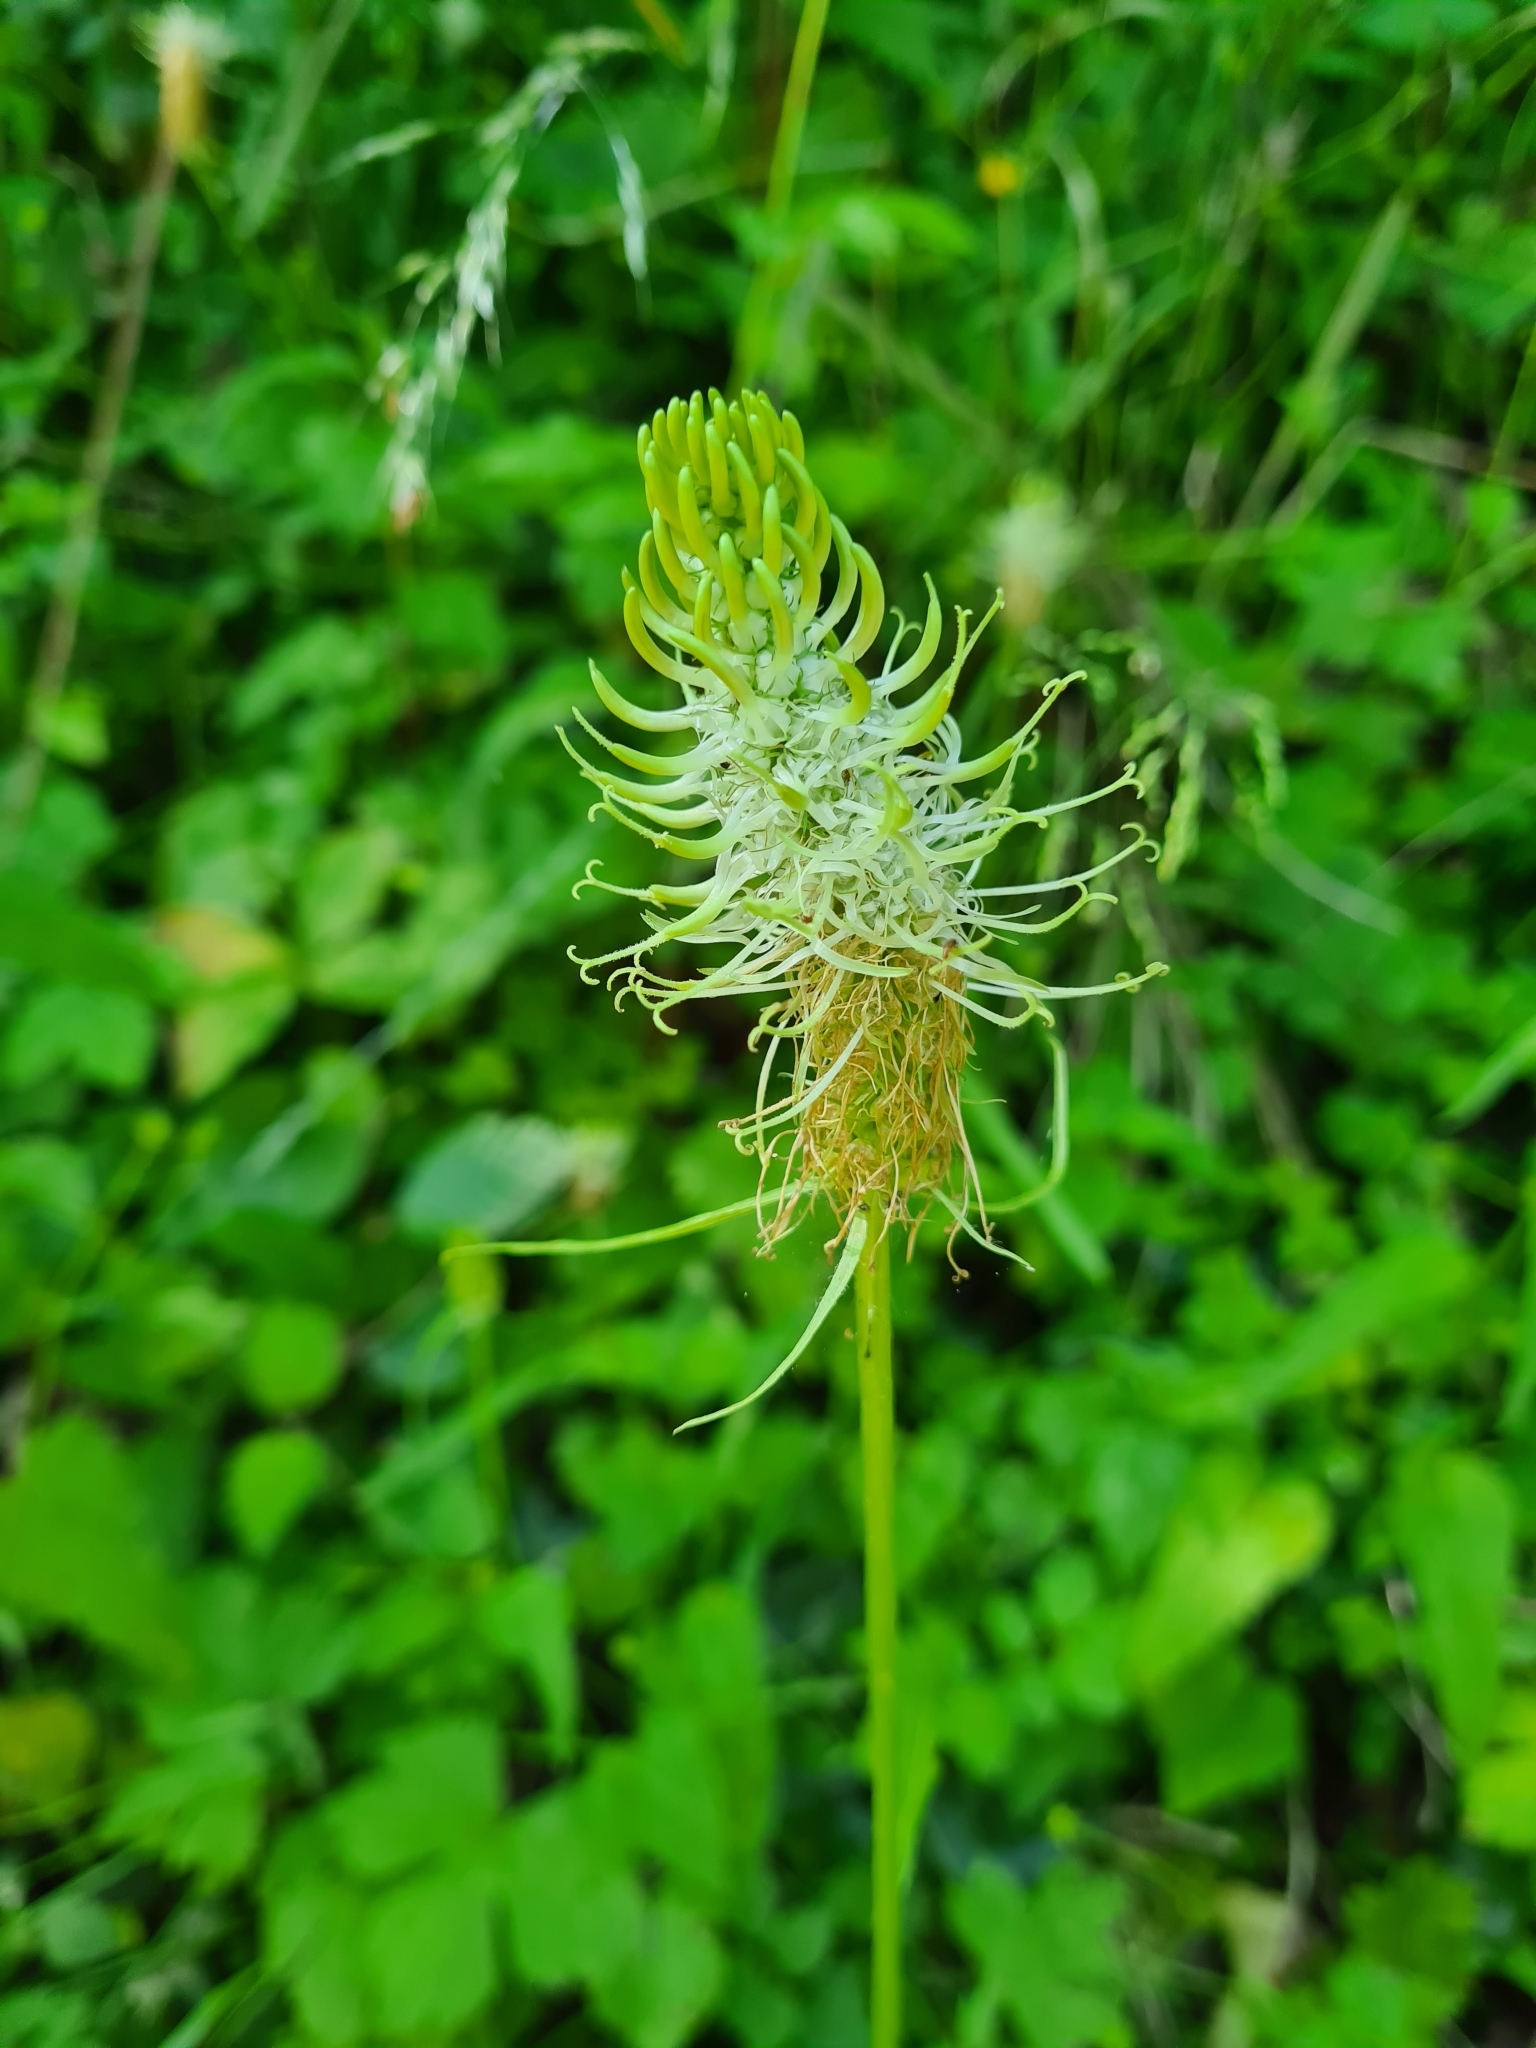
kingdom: Plantae
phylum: Tracheophyta
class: Magnoliopsida
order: Asterales
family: Campanulaceae
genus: Phyteuma
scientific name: Phyteuma spicatum
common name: Spiked rampion
